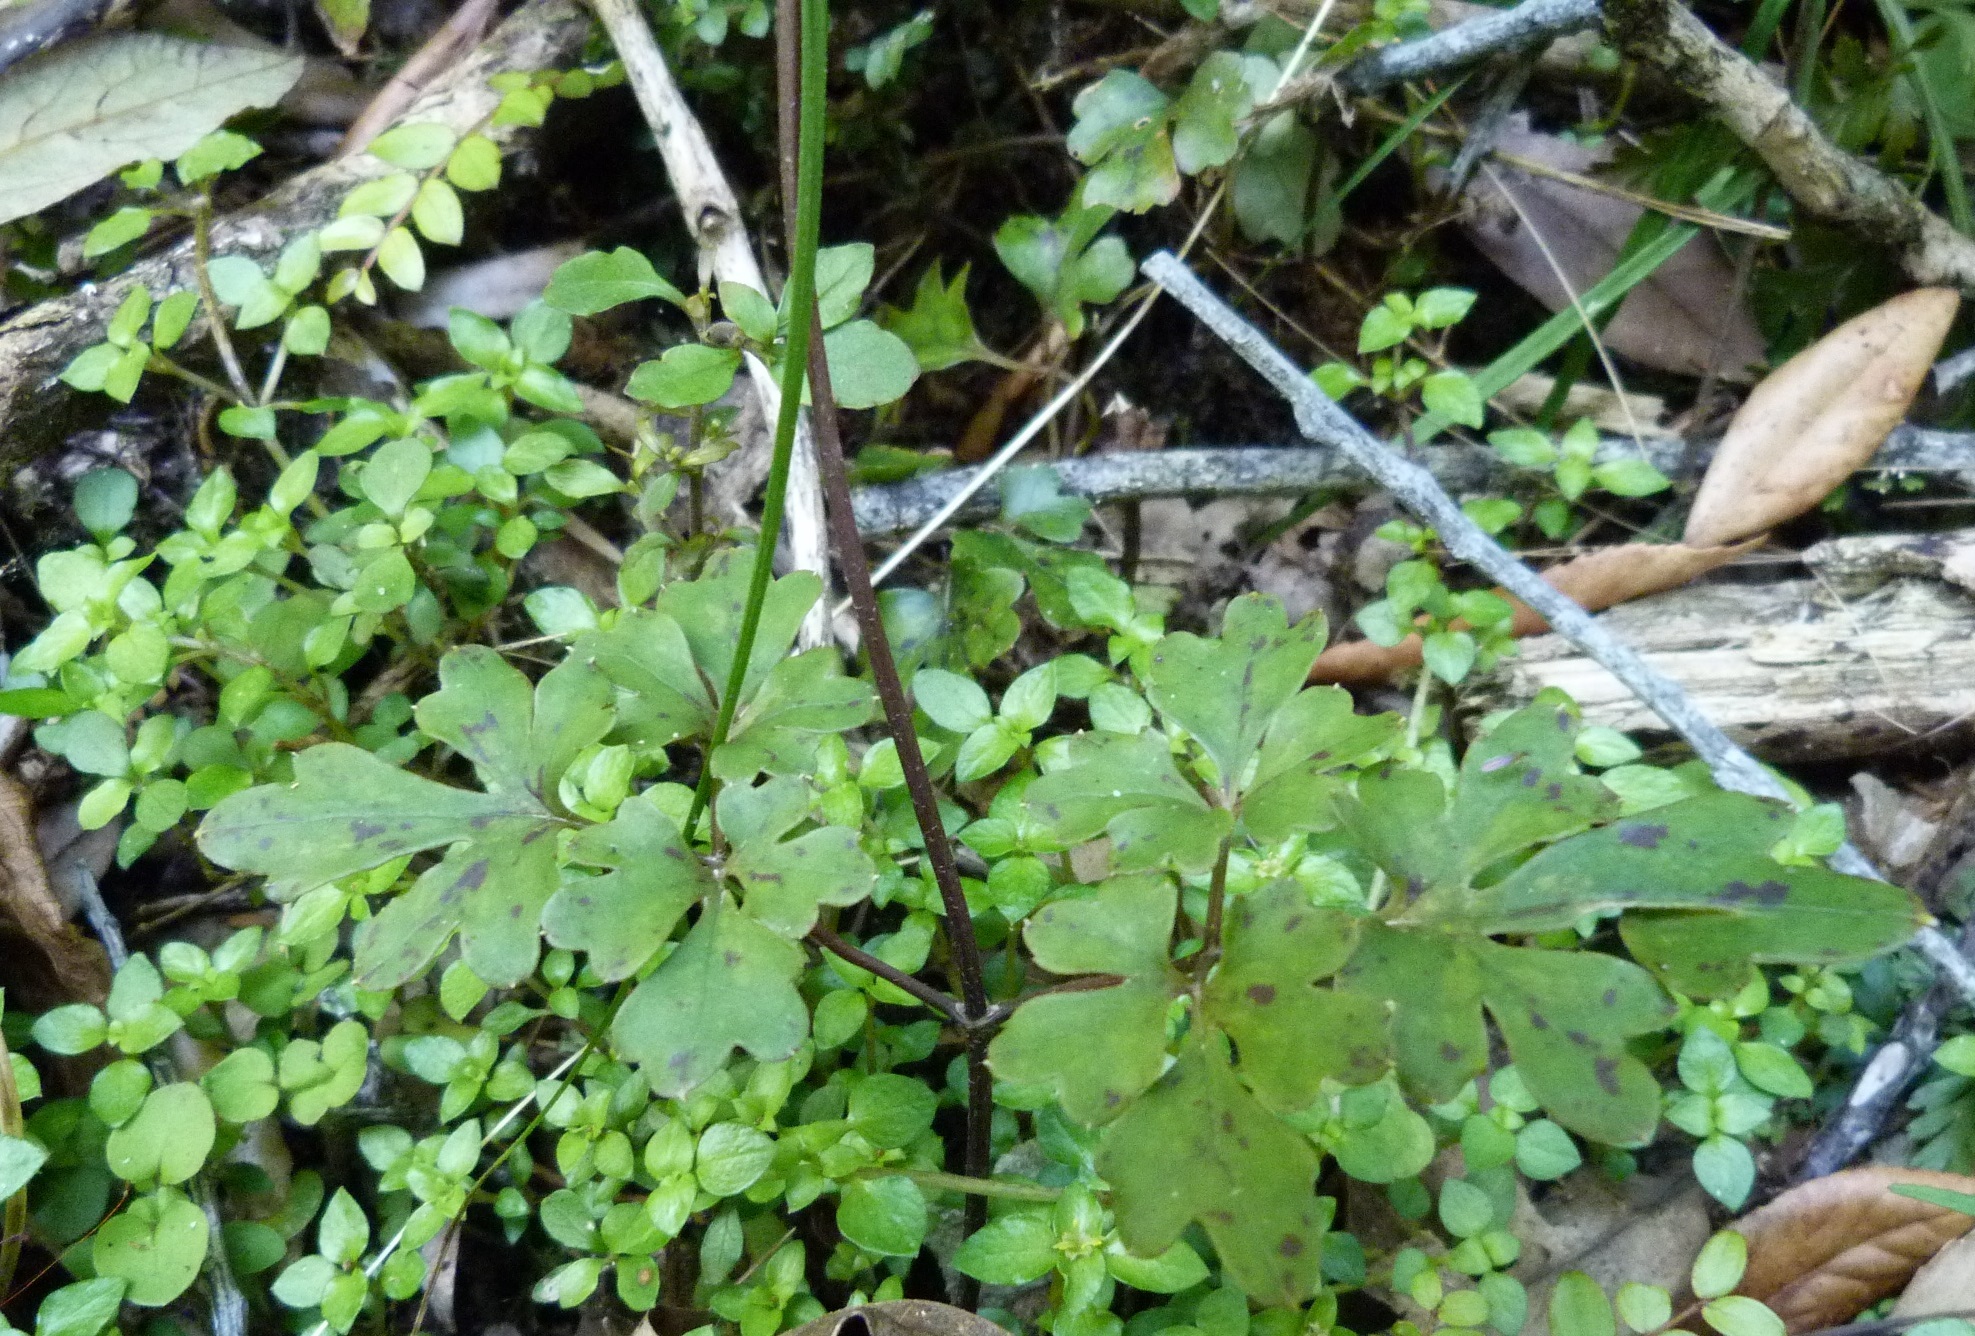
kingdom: Plantae
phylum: Tracheophyta
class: Magnoliopsida
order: Ranunculales
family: Ranunculaceae
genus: Clematis
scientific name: Clematis paniculata
